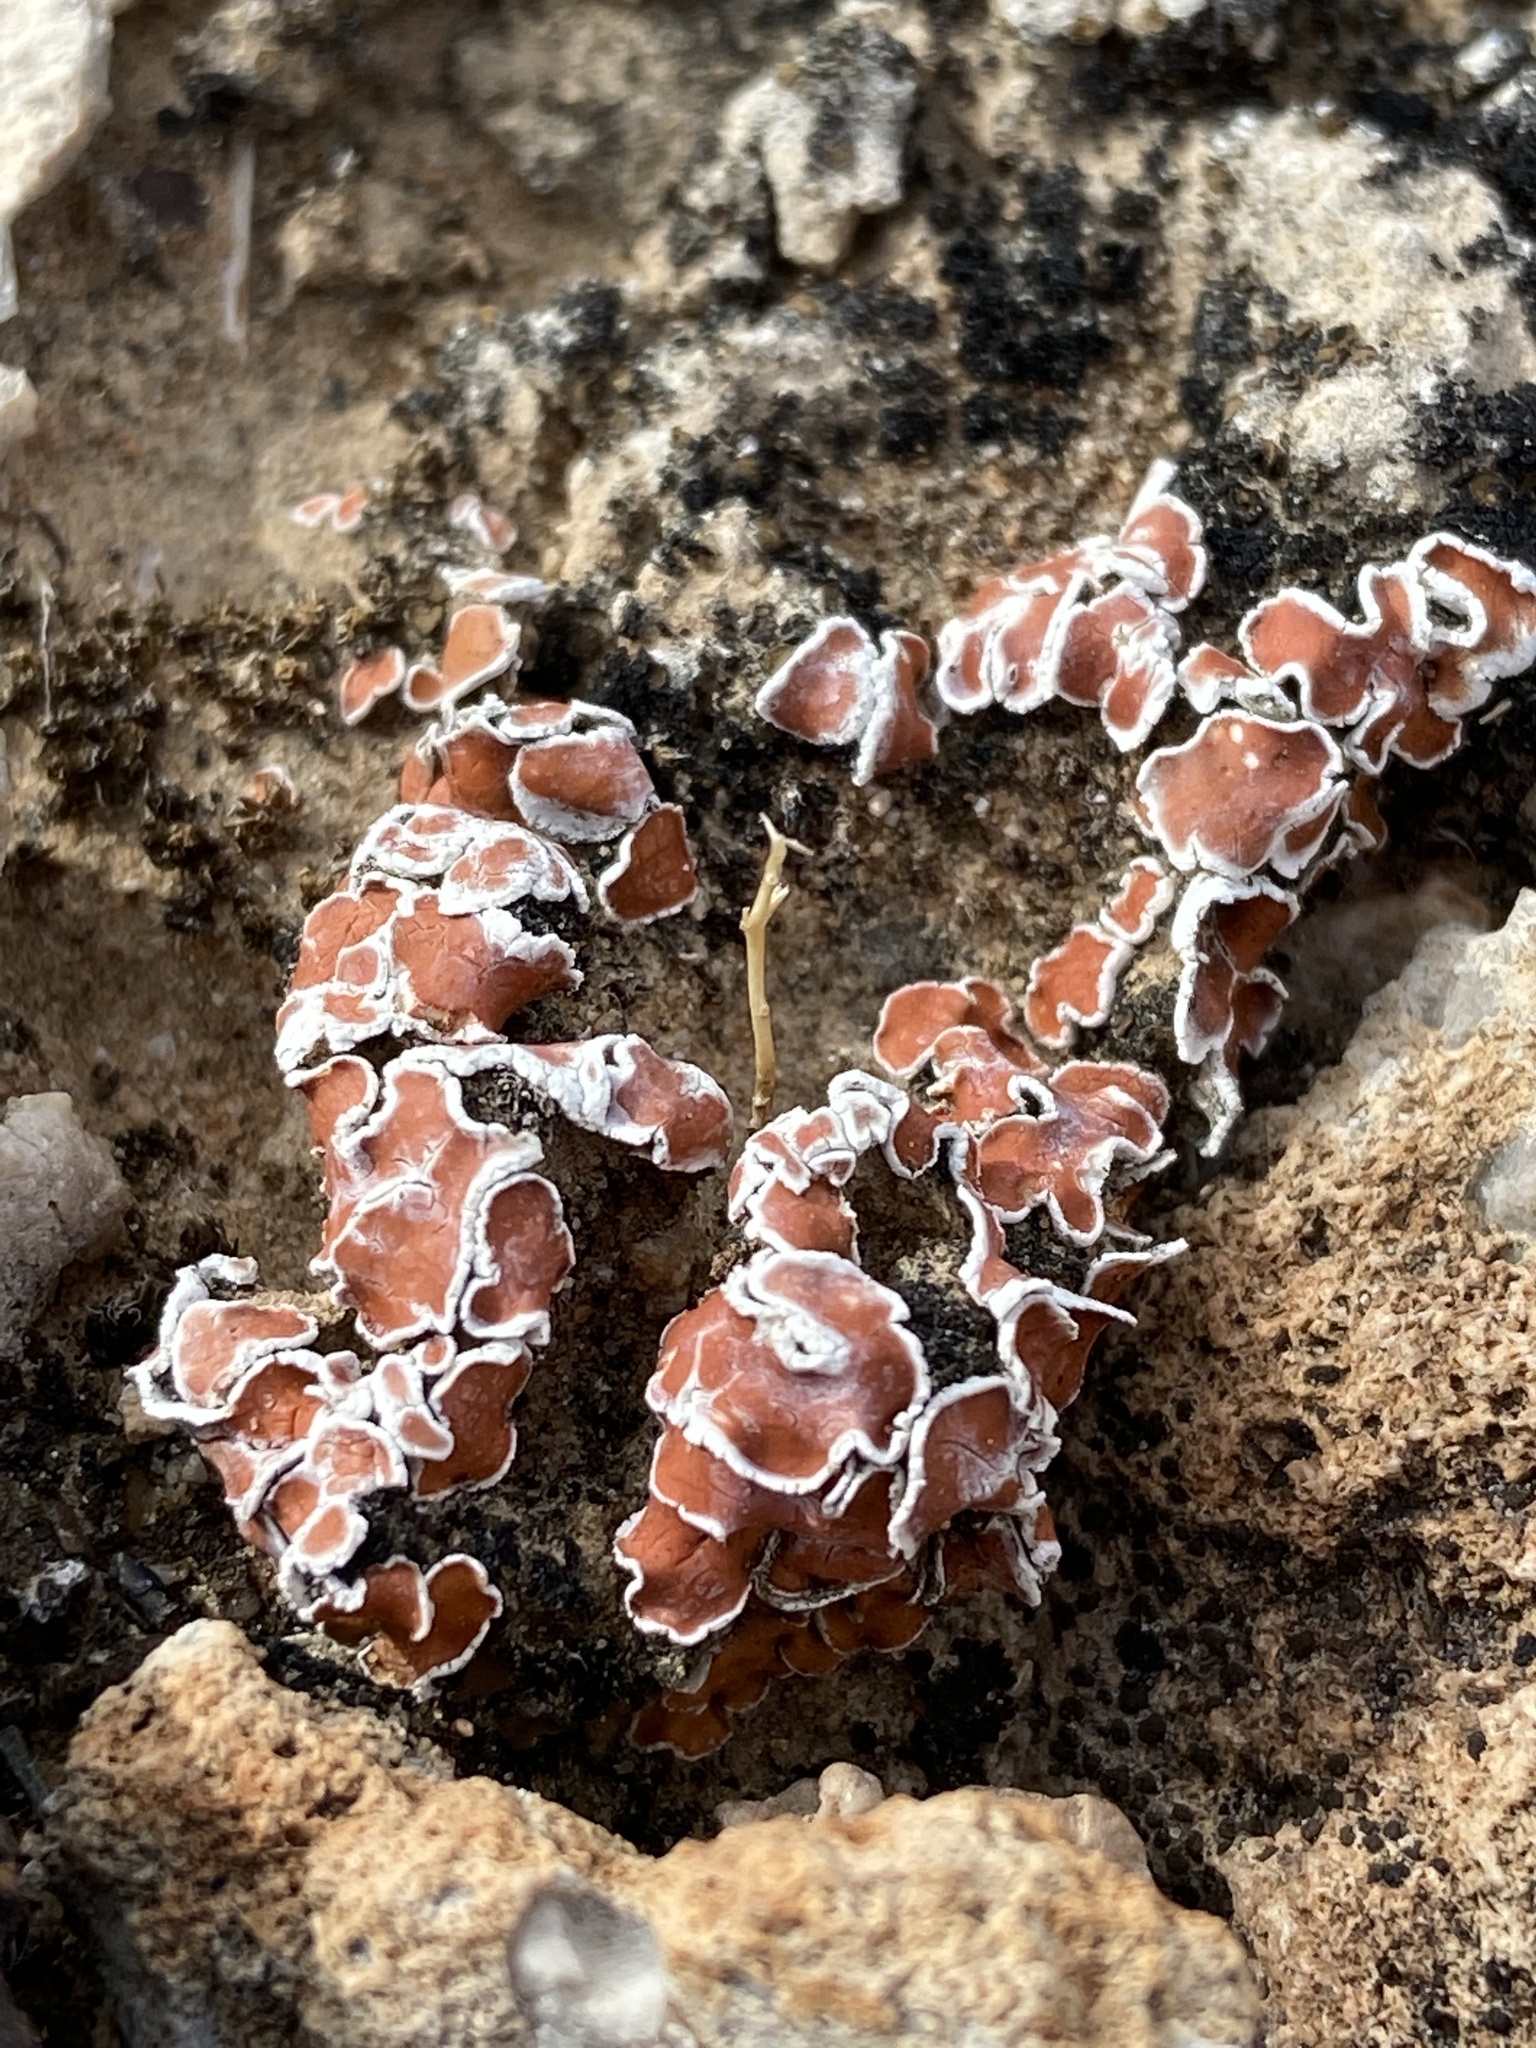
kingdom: Fungi
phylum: Ascomycota
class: Lecanoromycetes
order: Lecanorales
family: Psoraceae
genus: Psora
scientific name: Psora decipiens
